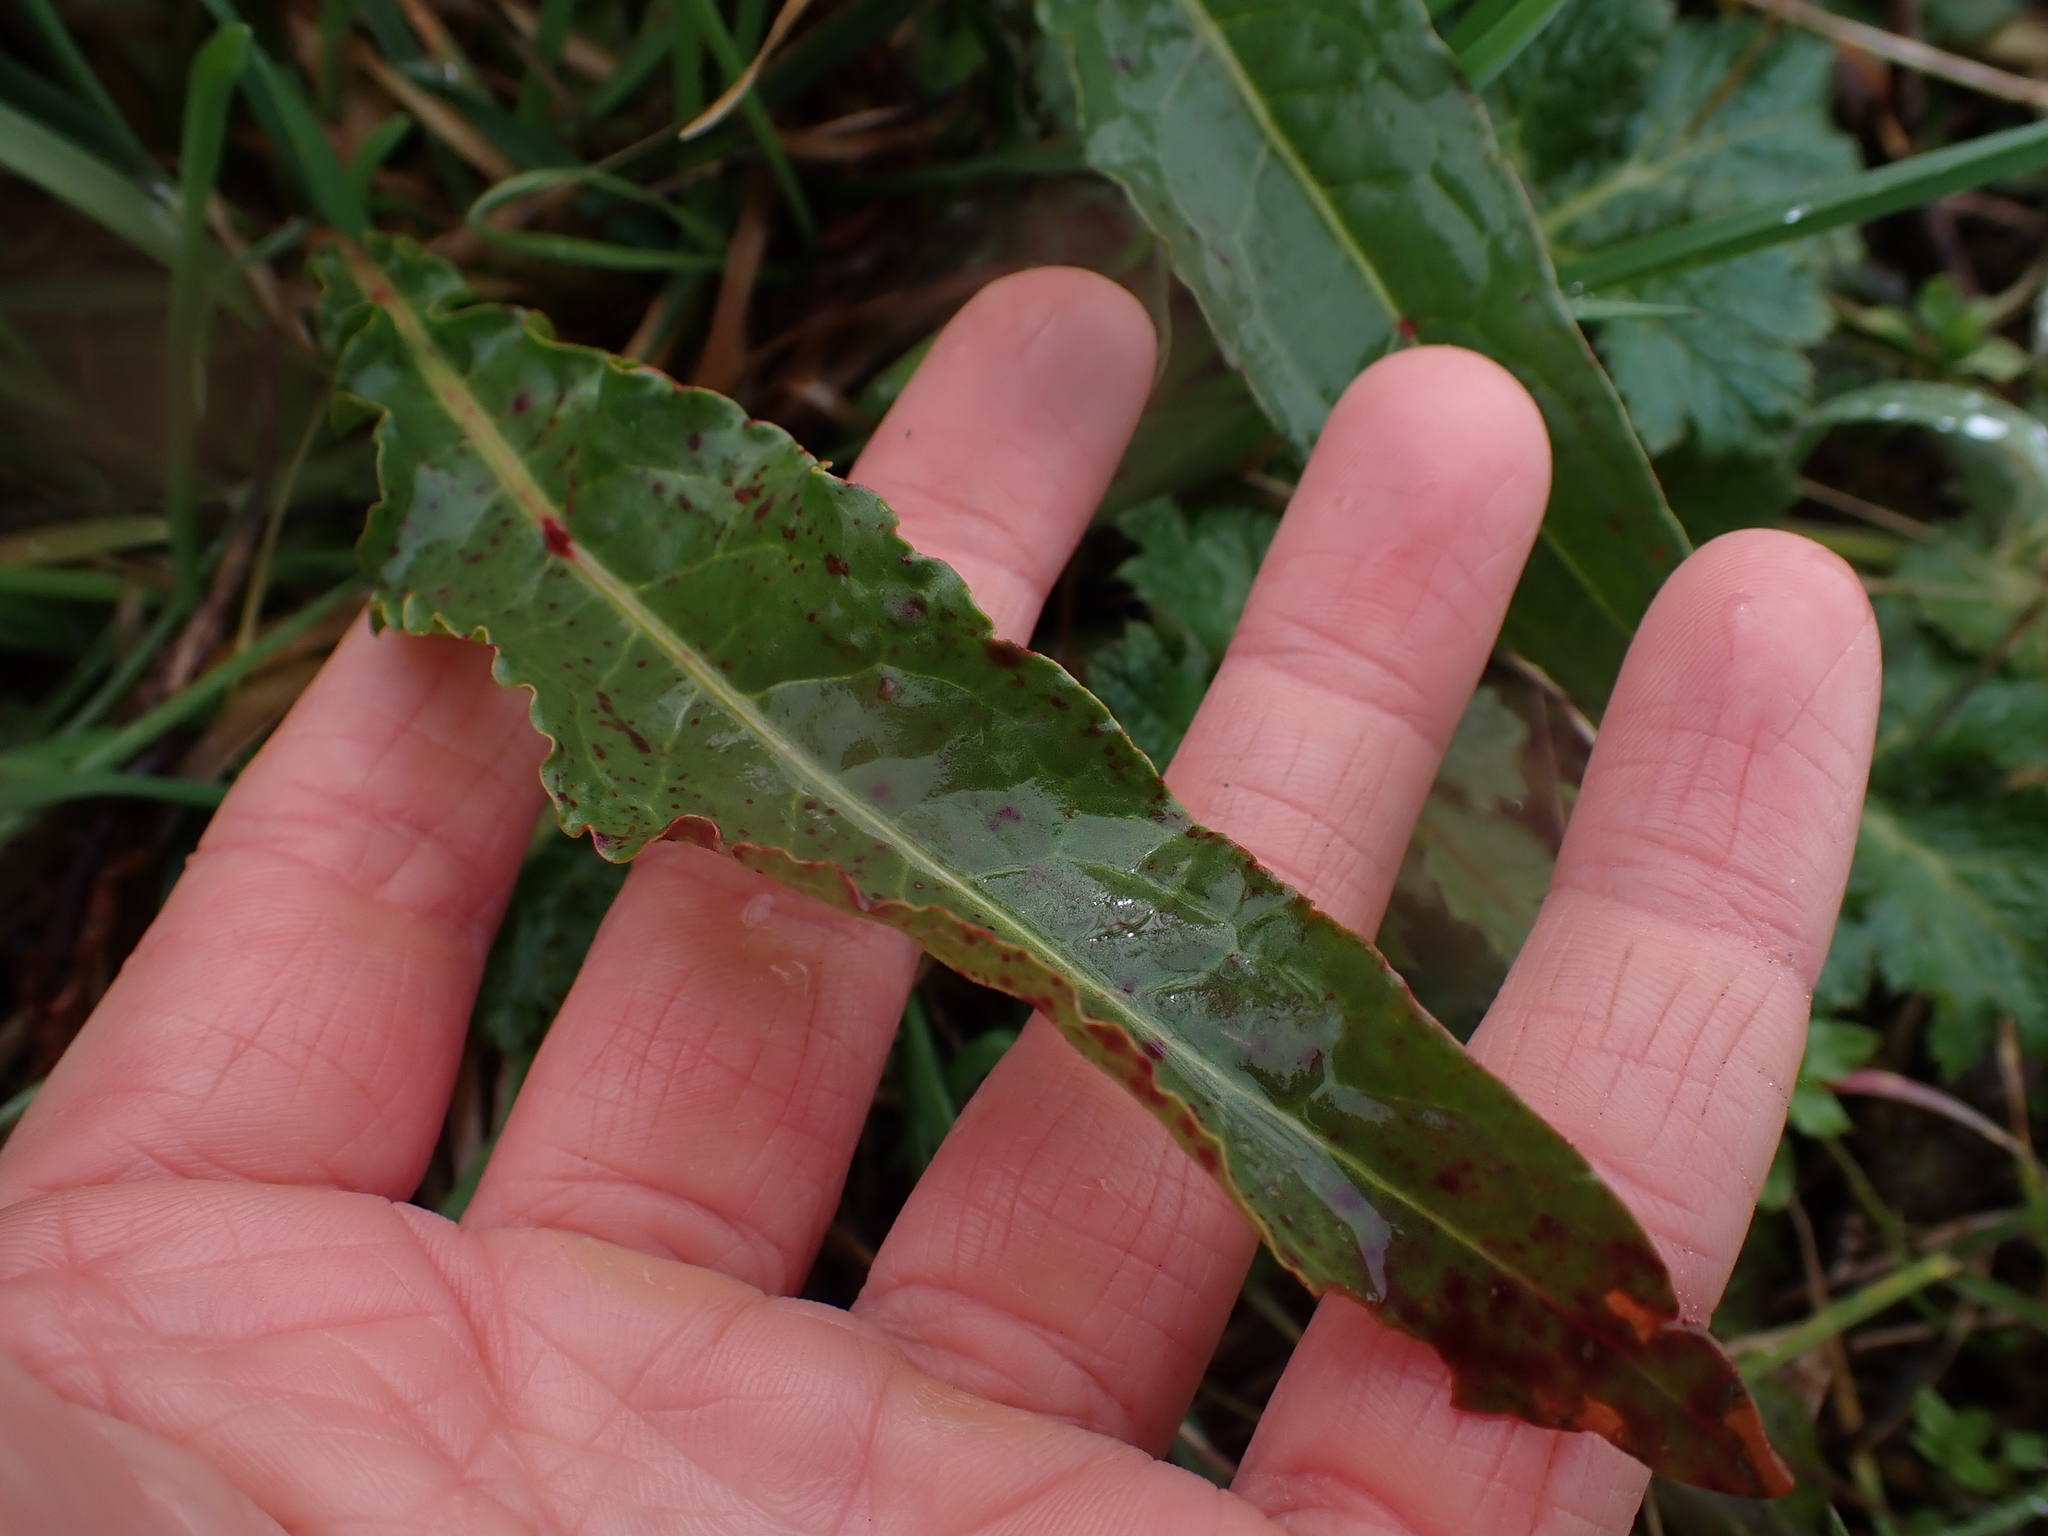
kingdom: Plantae
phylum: Tracheophyta
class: Magnoliopsida
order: Caryophyllales
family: Polygonaceae
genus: Rumex
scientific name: Rumex crispus
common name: Curled dock
